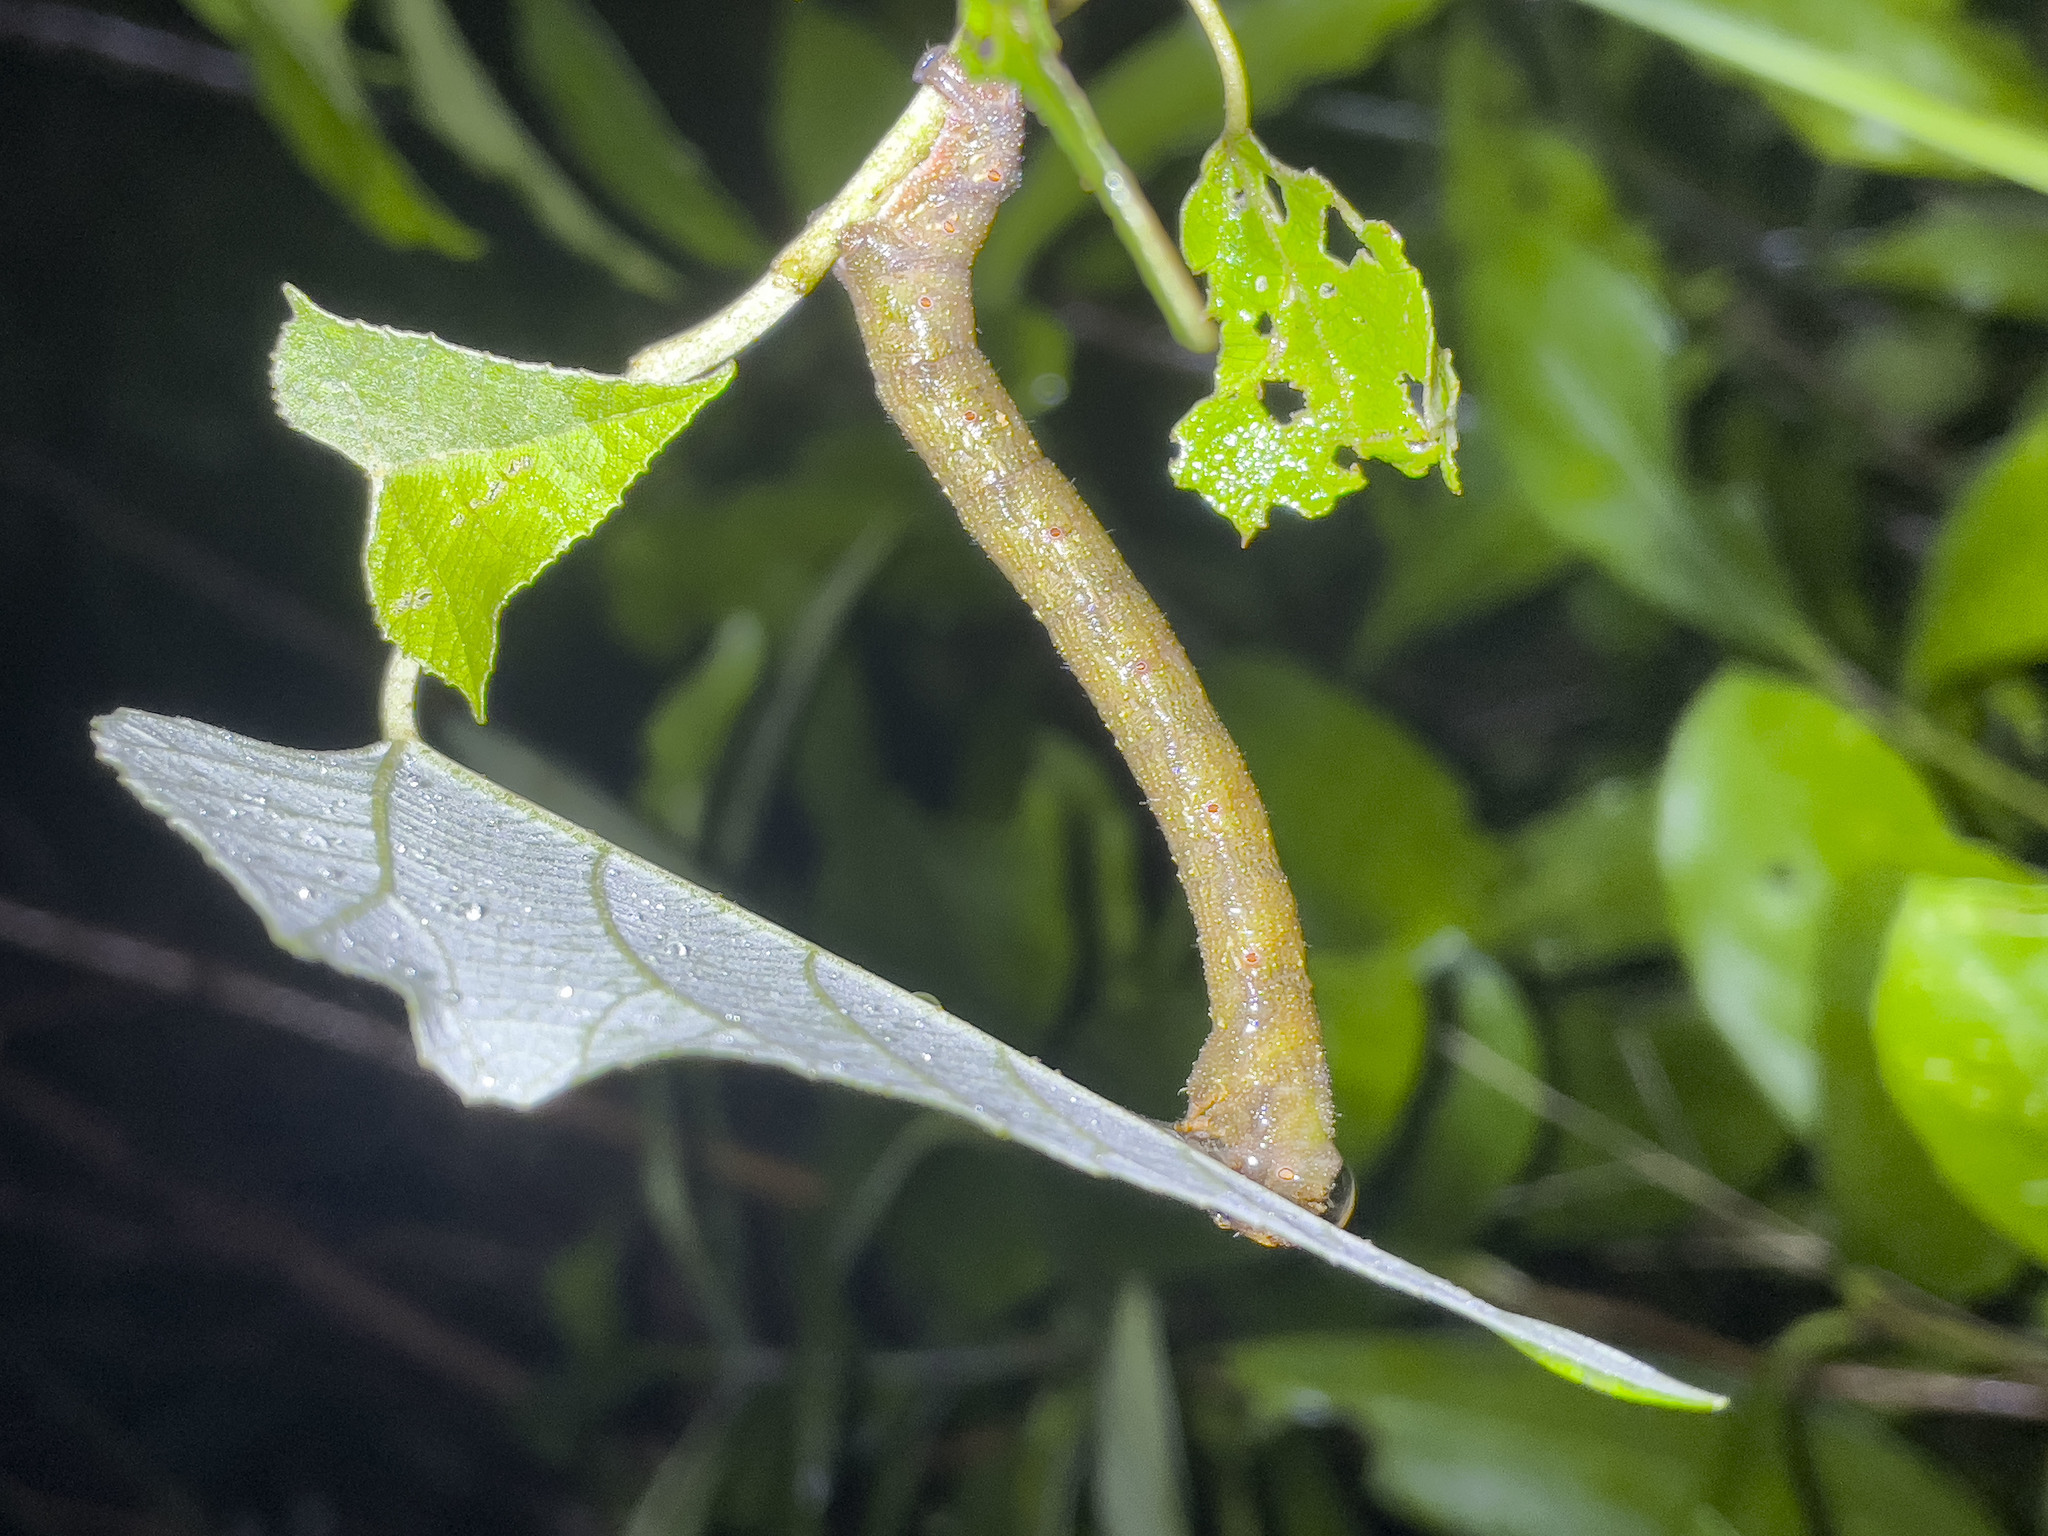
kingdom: Animalia
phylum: Arthropoda
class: Insecta
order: Lepidoptera
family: Geometridae
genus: Biston
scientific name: Biston suppressaria
